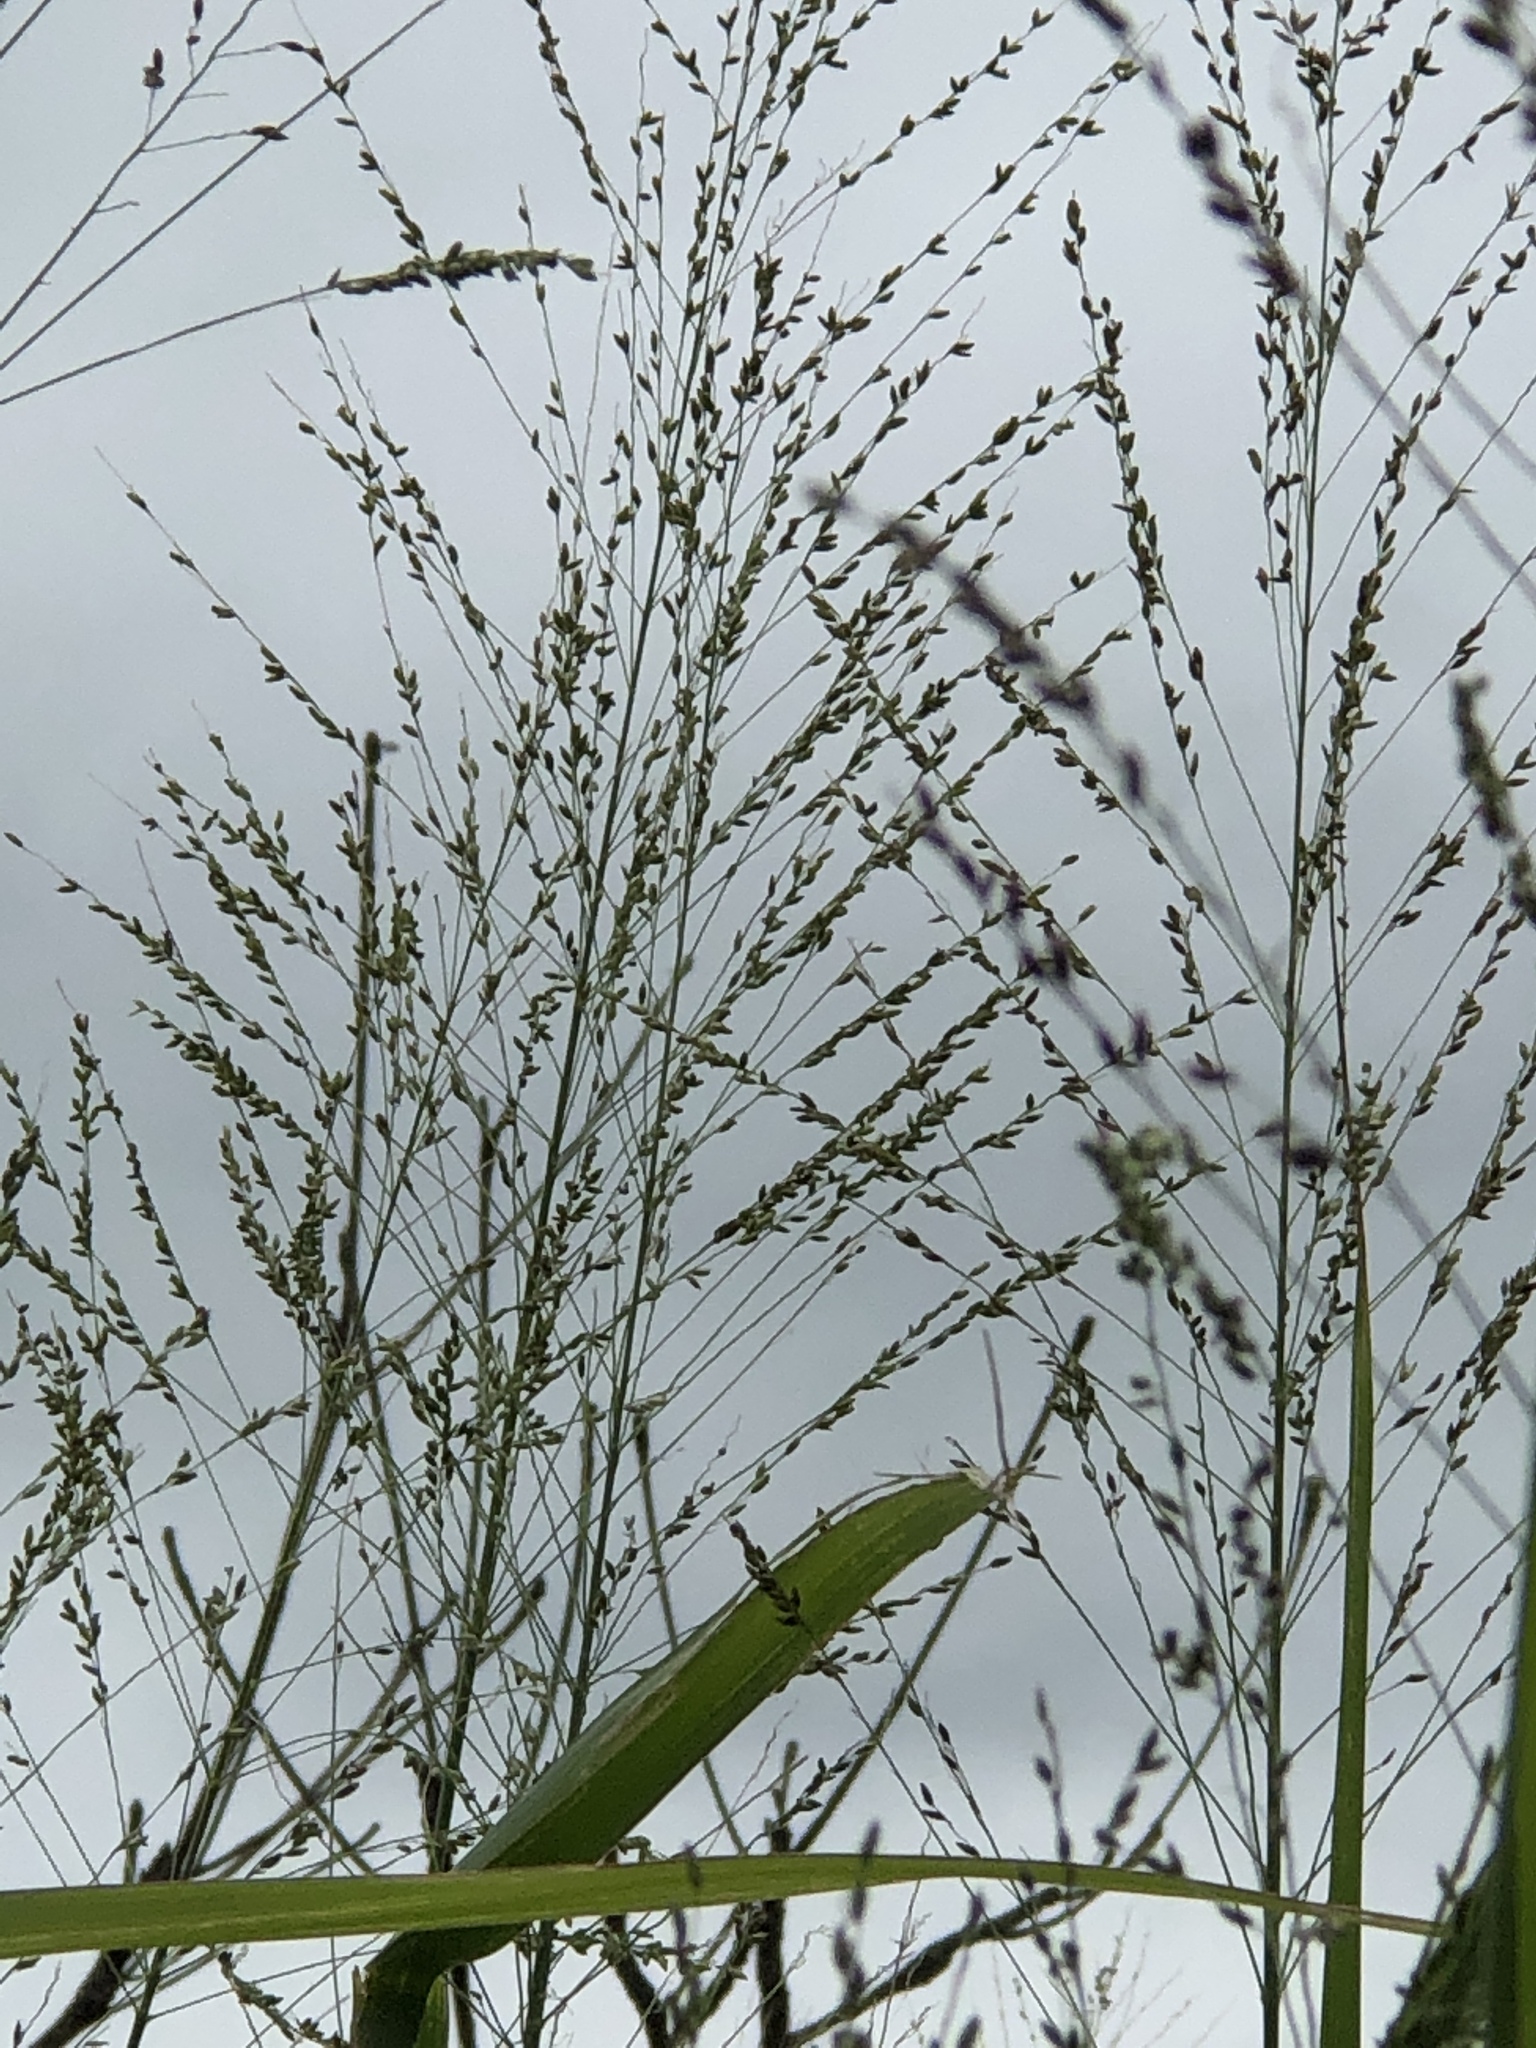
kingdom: Plantae
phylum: Tracheophyta
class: Liliopsida
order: Poales
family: Poaceae
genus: Megathyrsus
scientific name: Megathyrsus maximus
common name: Guineagrass
